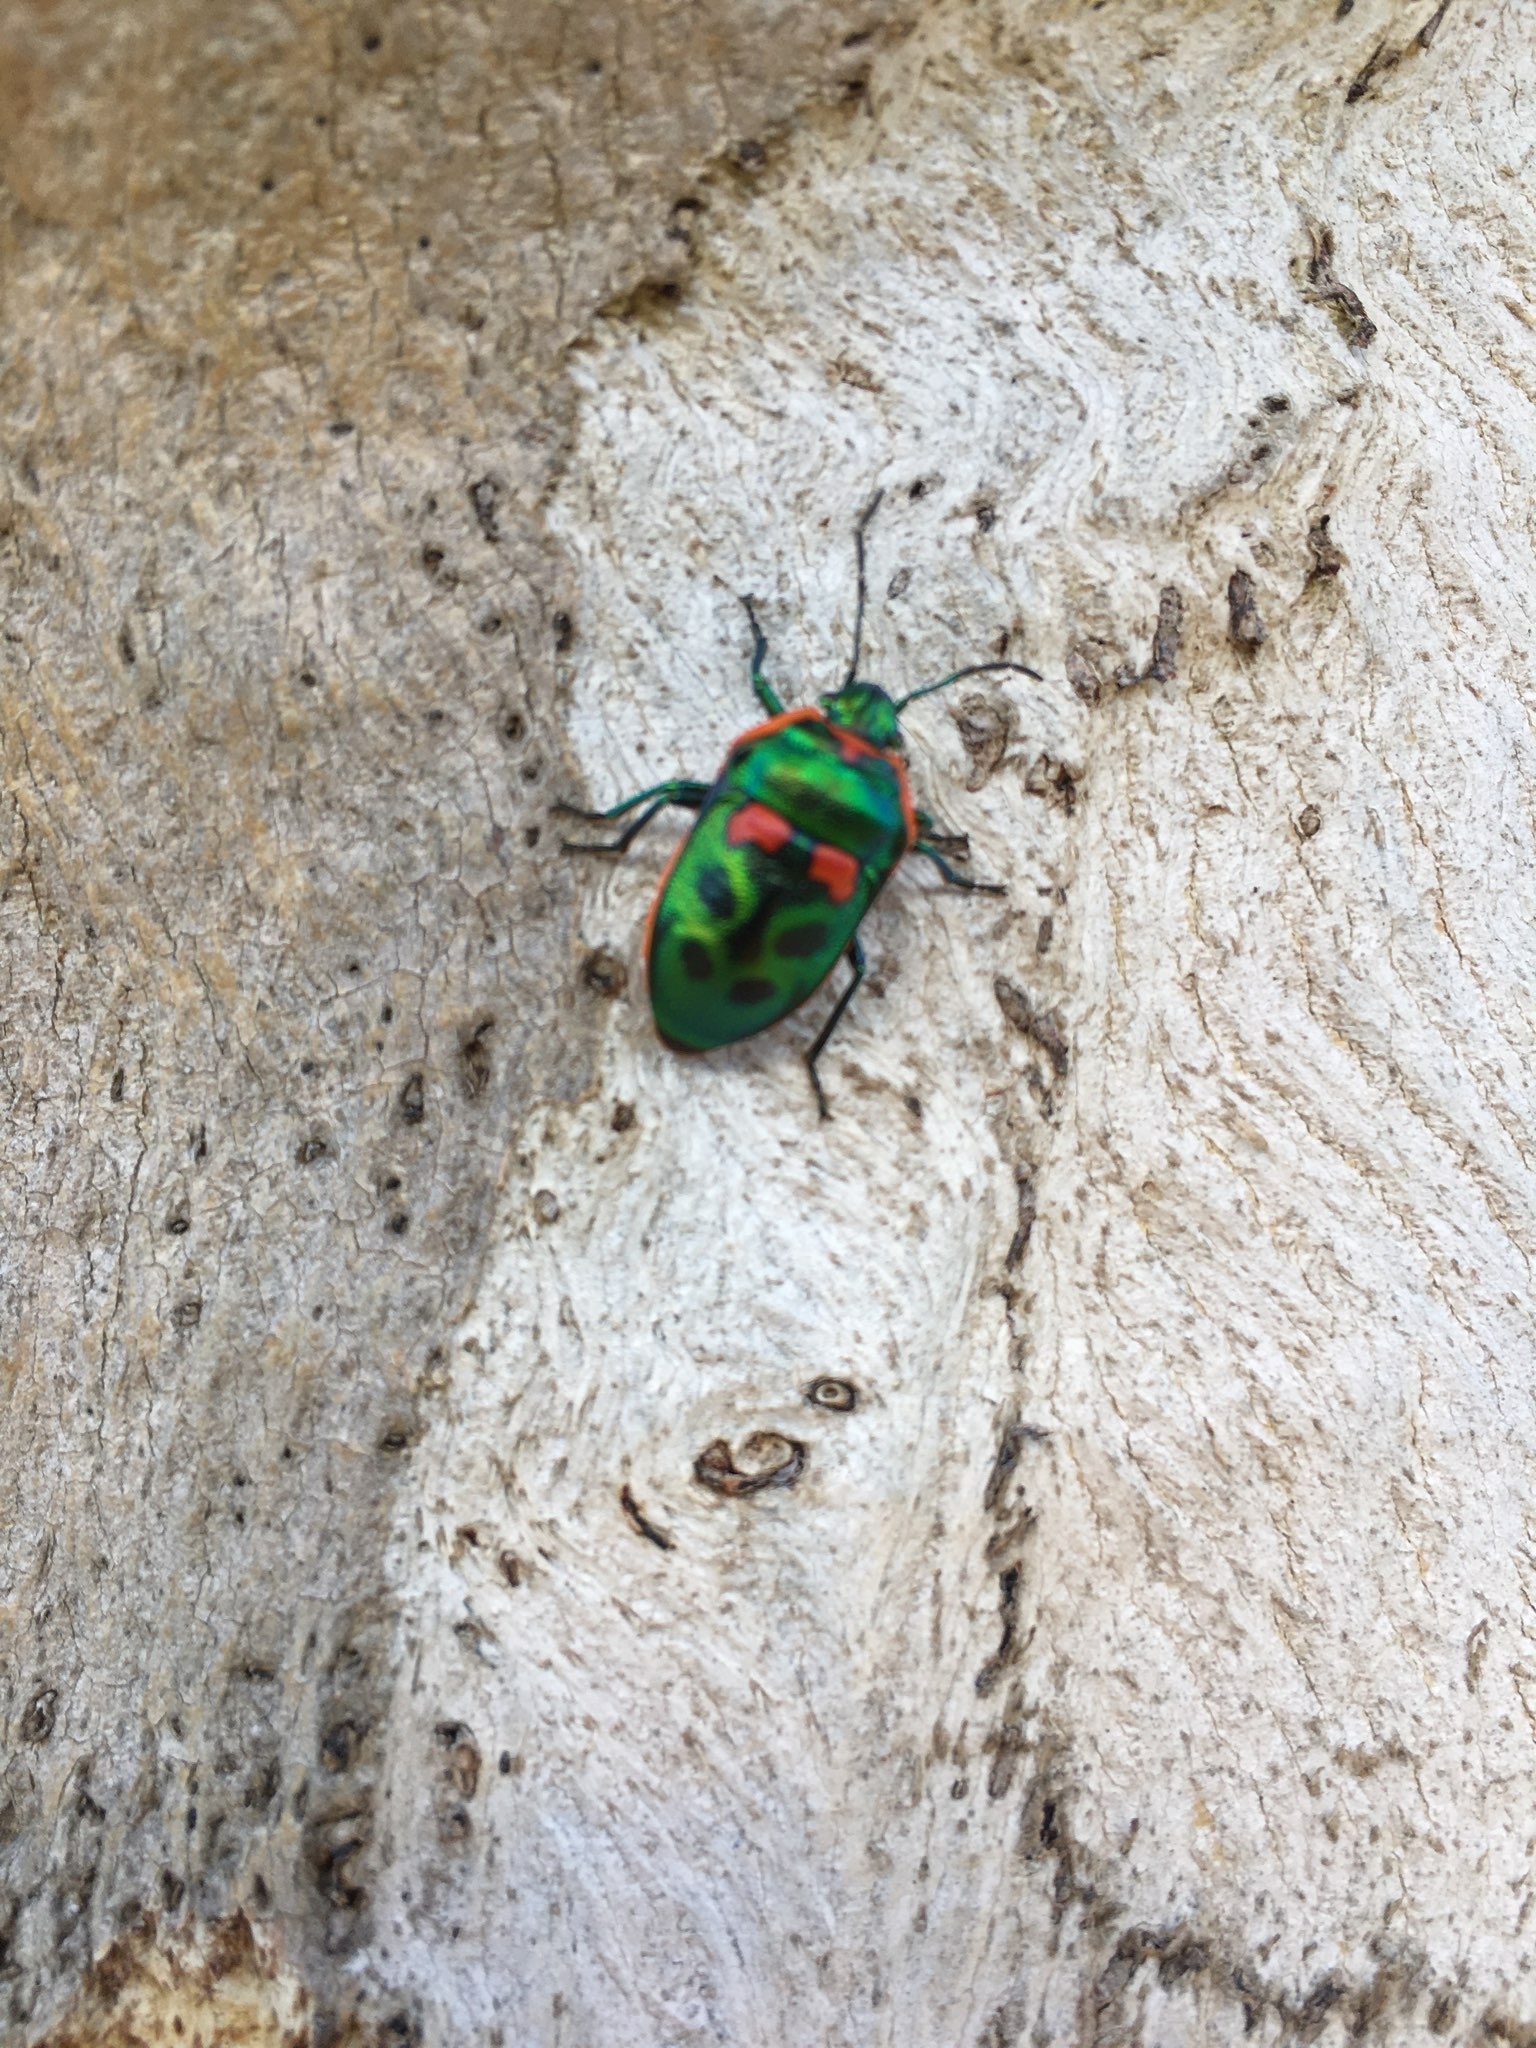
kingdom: Animalia
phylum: Arthropoda
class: Insecta
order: Hemiptera
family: Scutelleridae
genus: Scutiphora
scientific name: Scutiphora pedicellata
